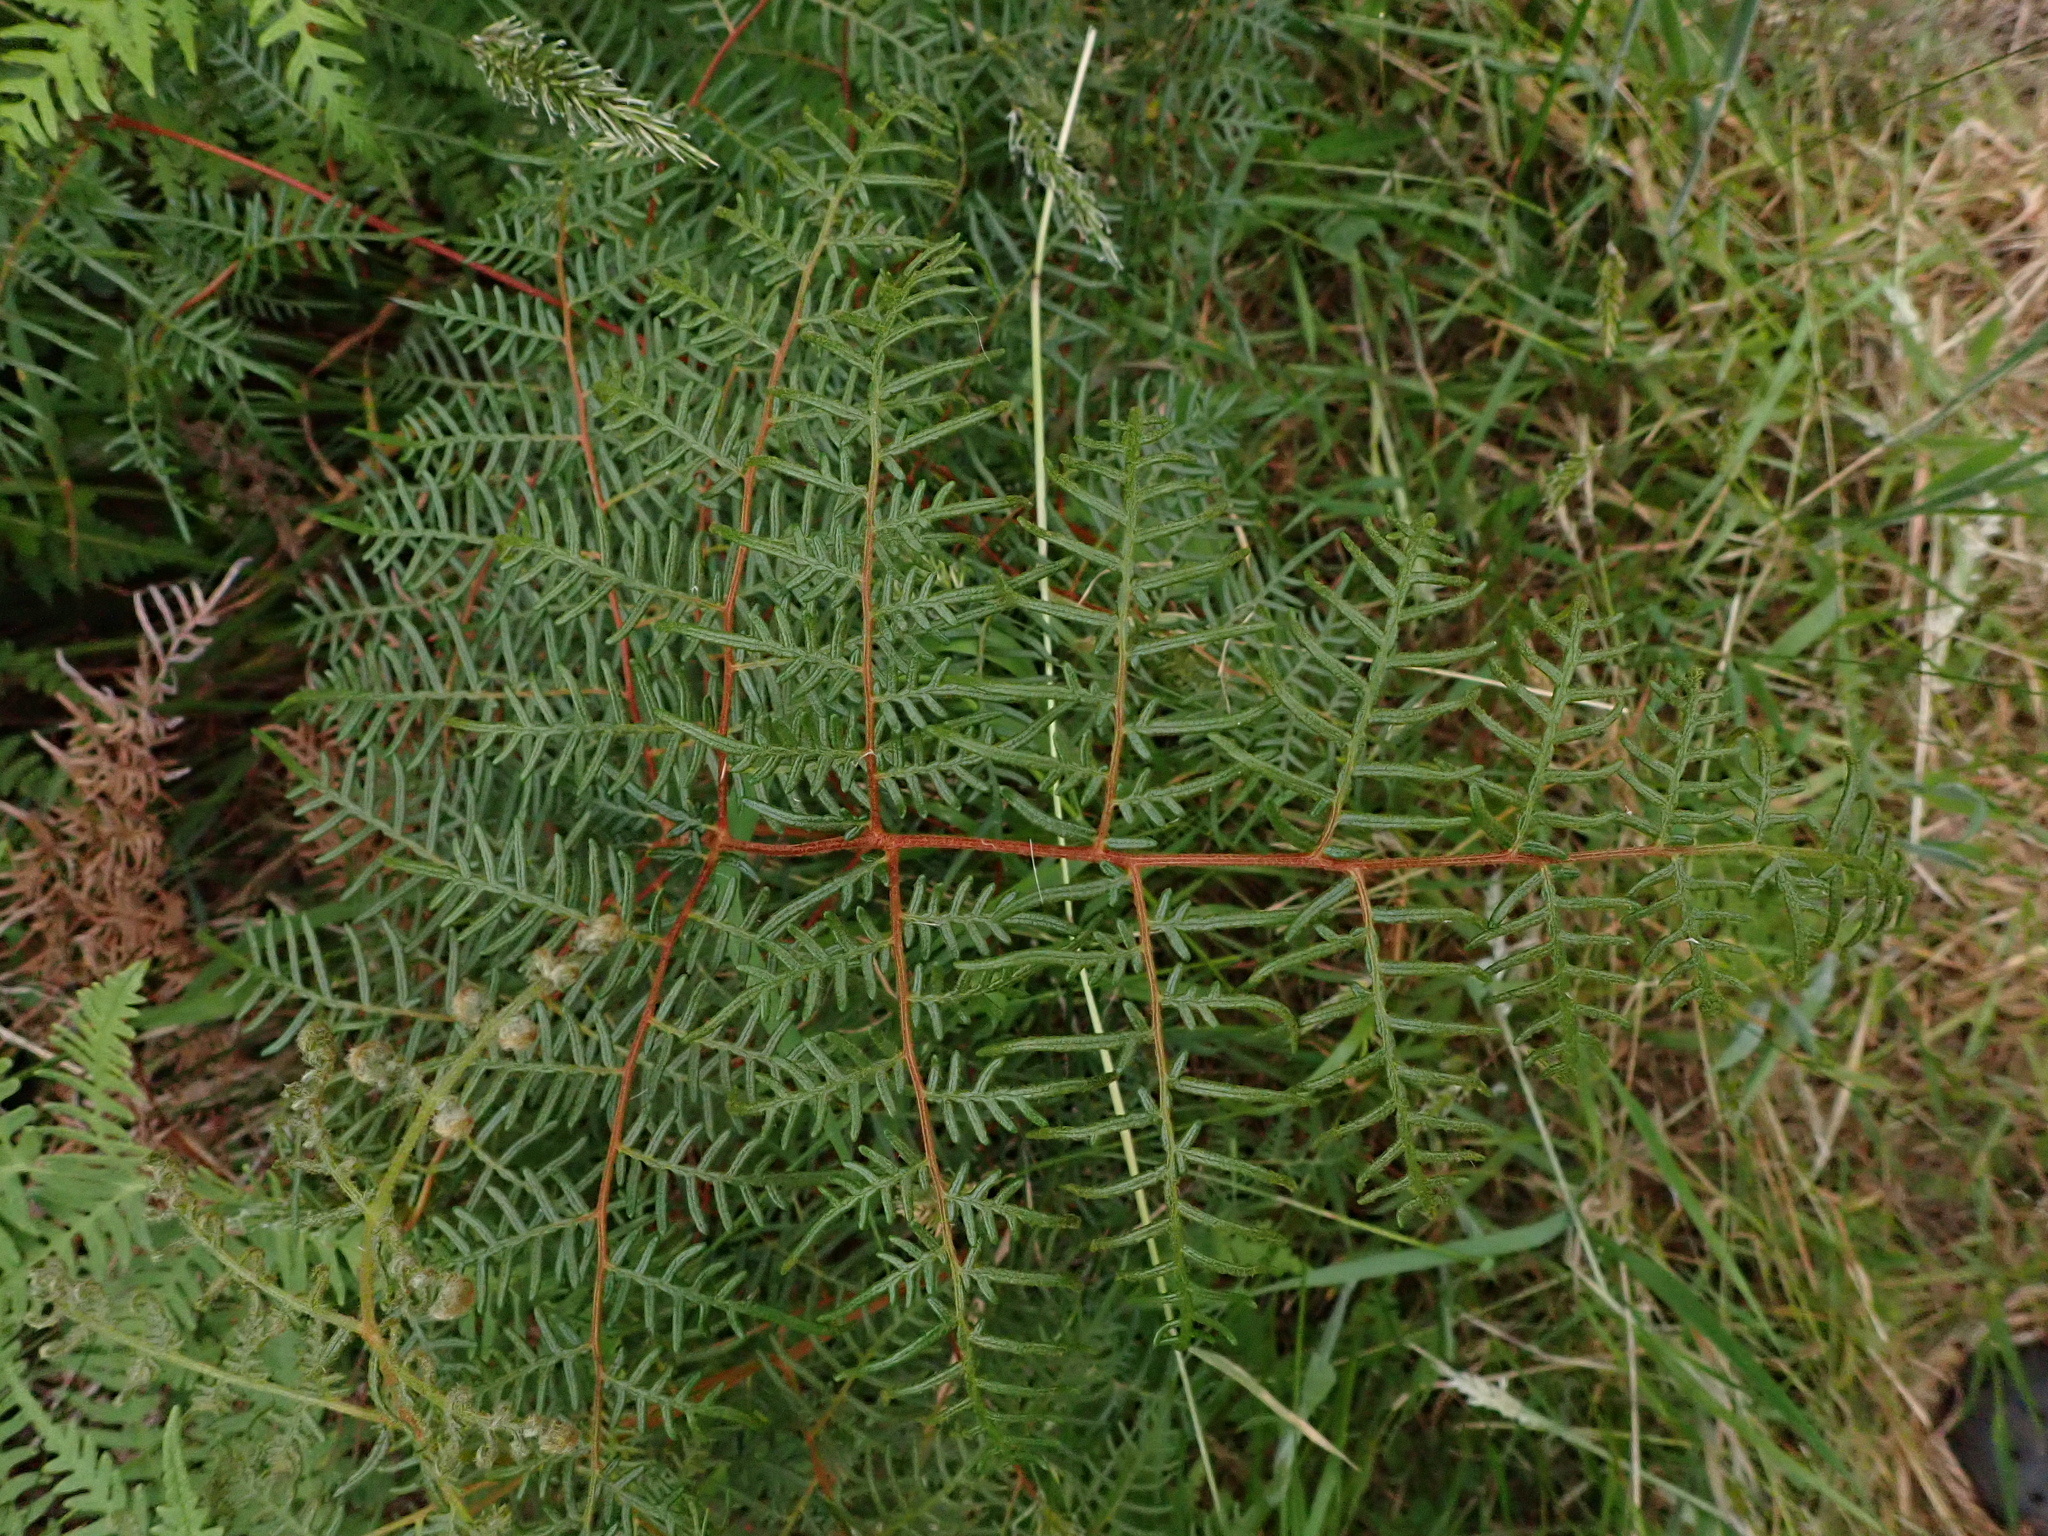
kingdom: Plantae
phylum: Tracheophyta
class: Polypodiopsida
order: Polypodiales
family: Dennstaedtiaceae
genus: Pteridium
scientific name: Pteridium esculentum
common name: Bracken fern
